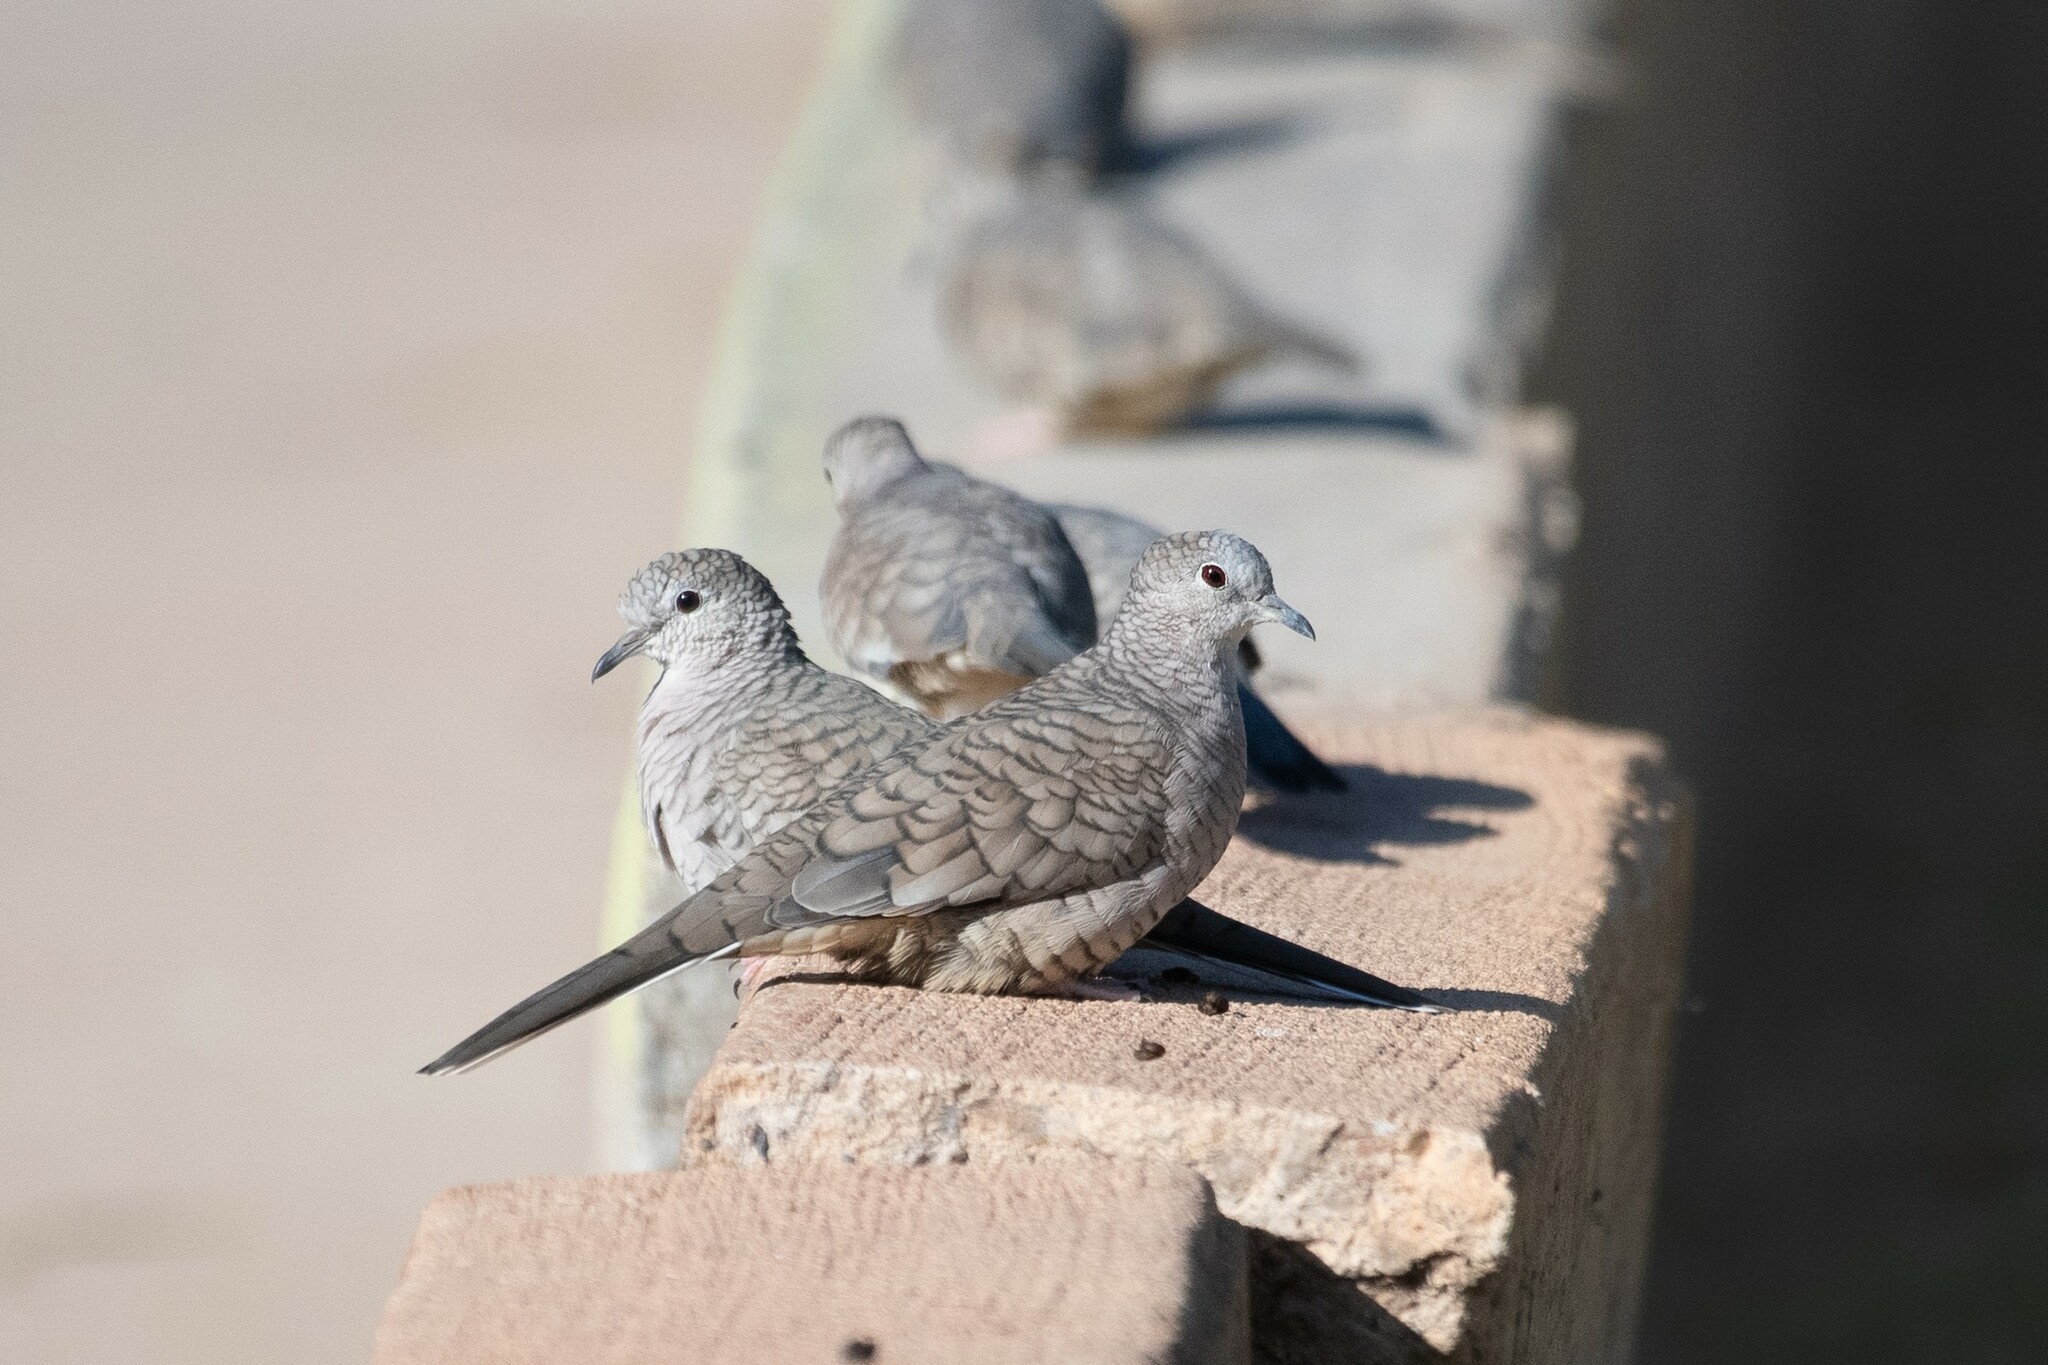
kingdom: Animalia
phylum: Chordata
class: Aves
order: Columbiformes
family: Columbidae
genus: Columbina
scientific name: Columbina inca
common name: Inca dove
